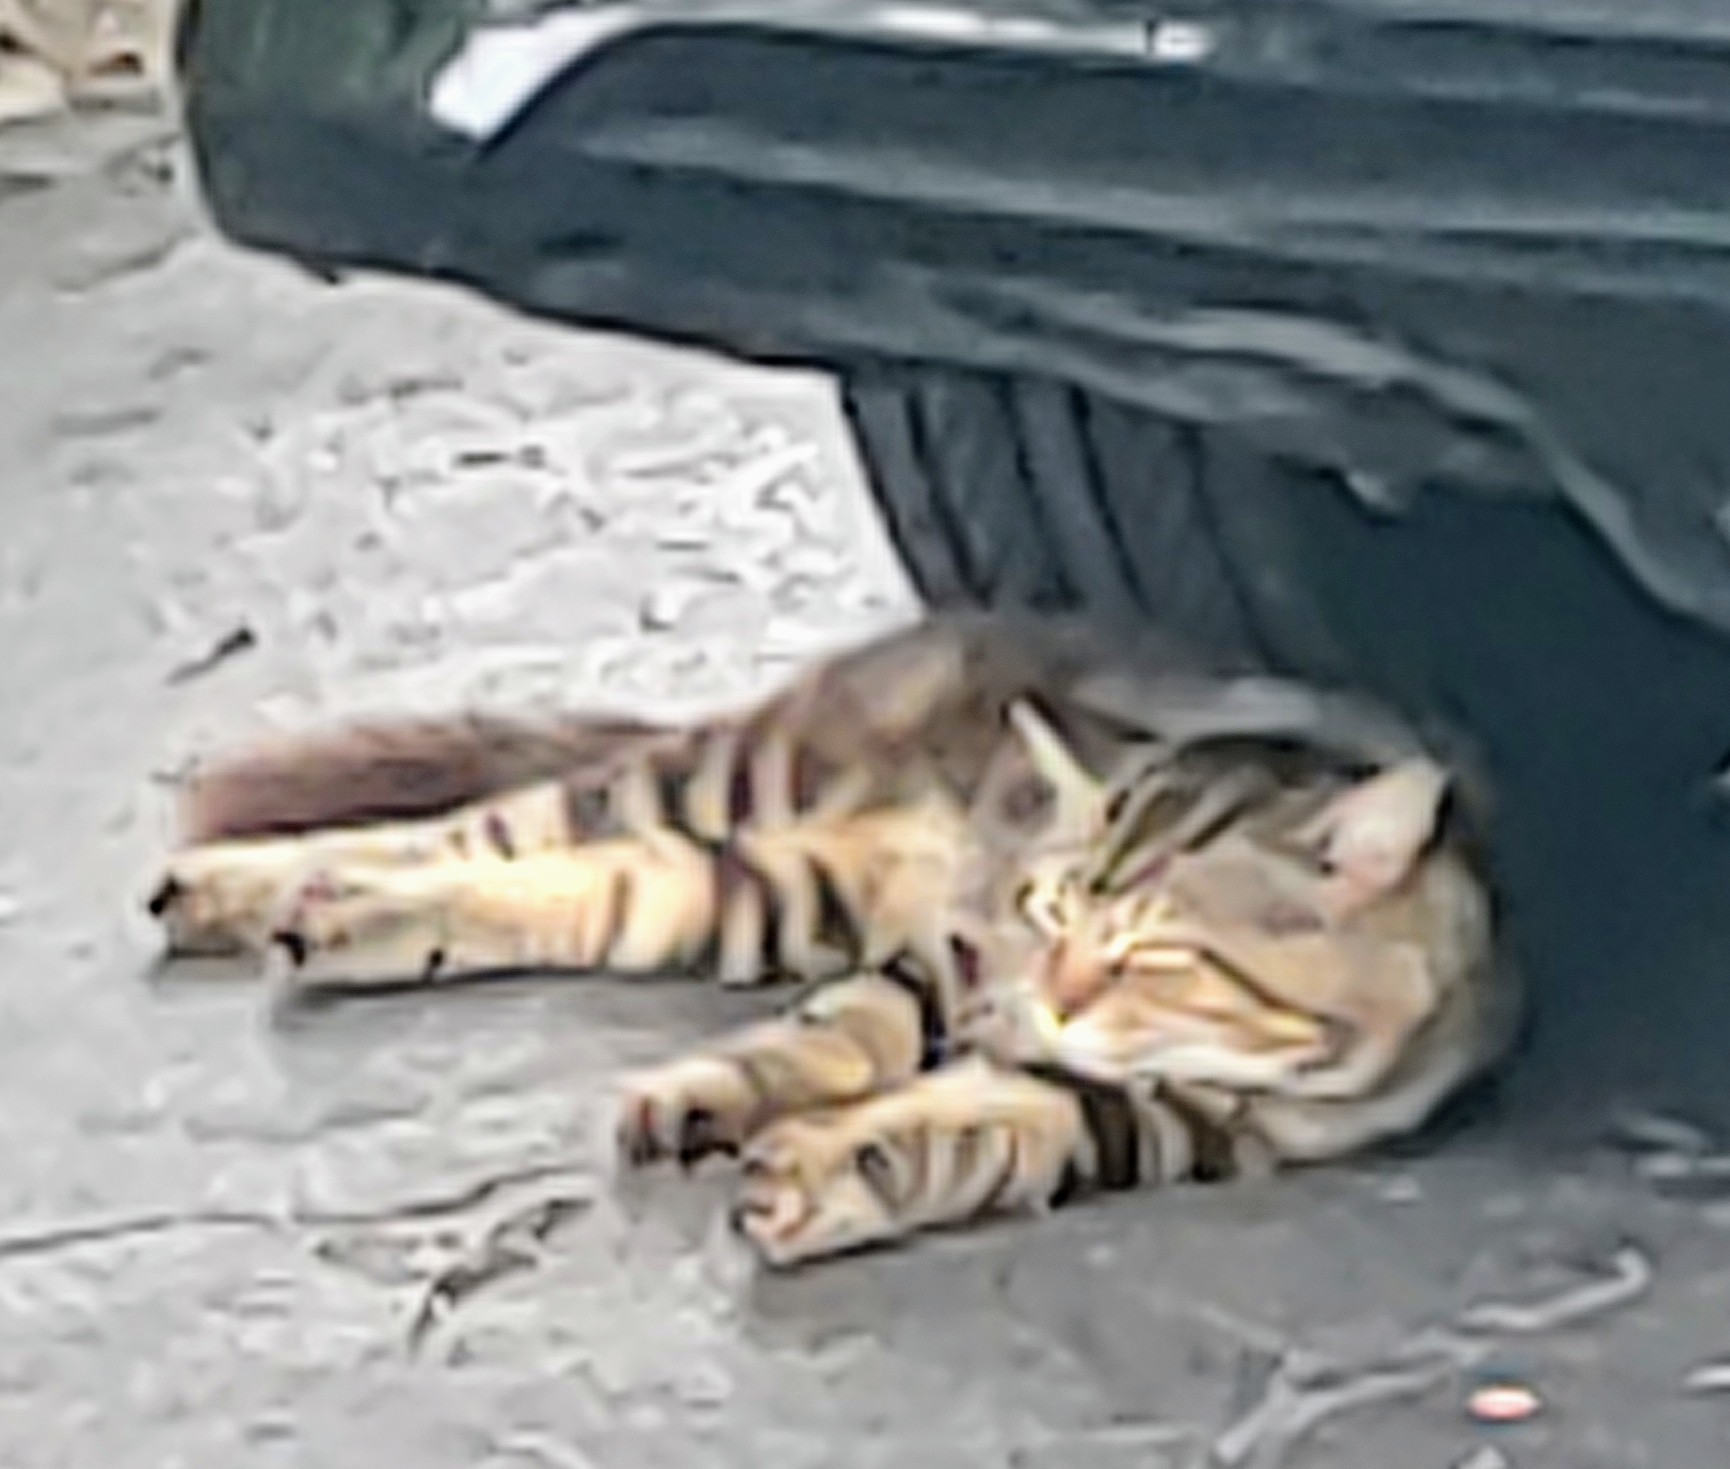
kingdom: Animalia
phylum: Chordata
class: Mammalia
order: Carnivora
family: Felidae
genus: Felis
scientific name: Felis catus
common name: Domestic cat
